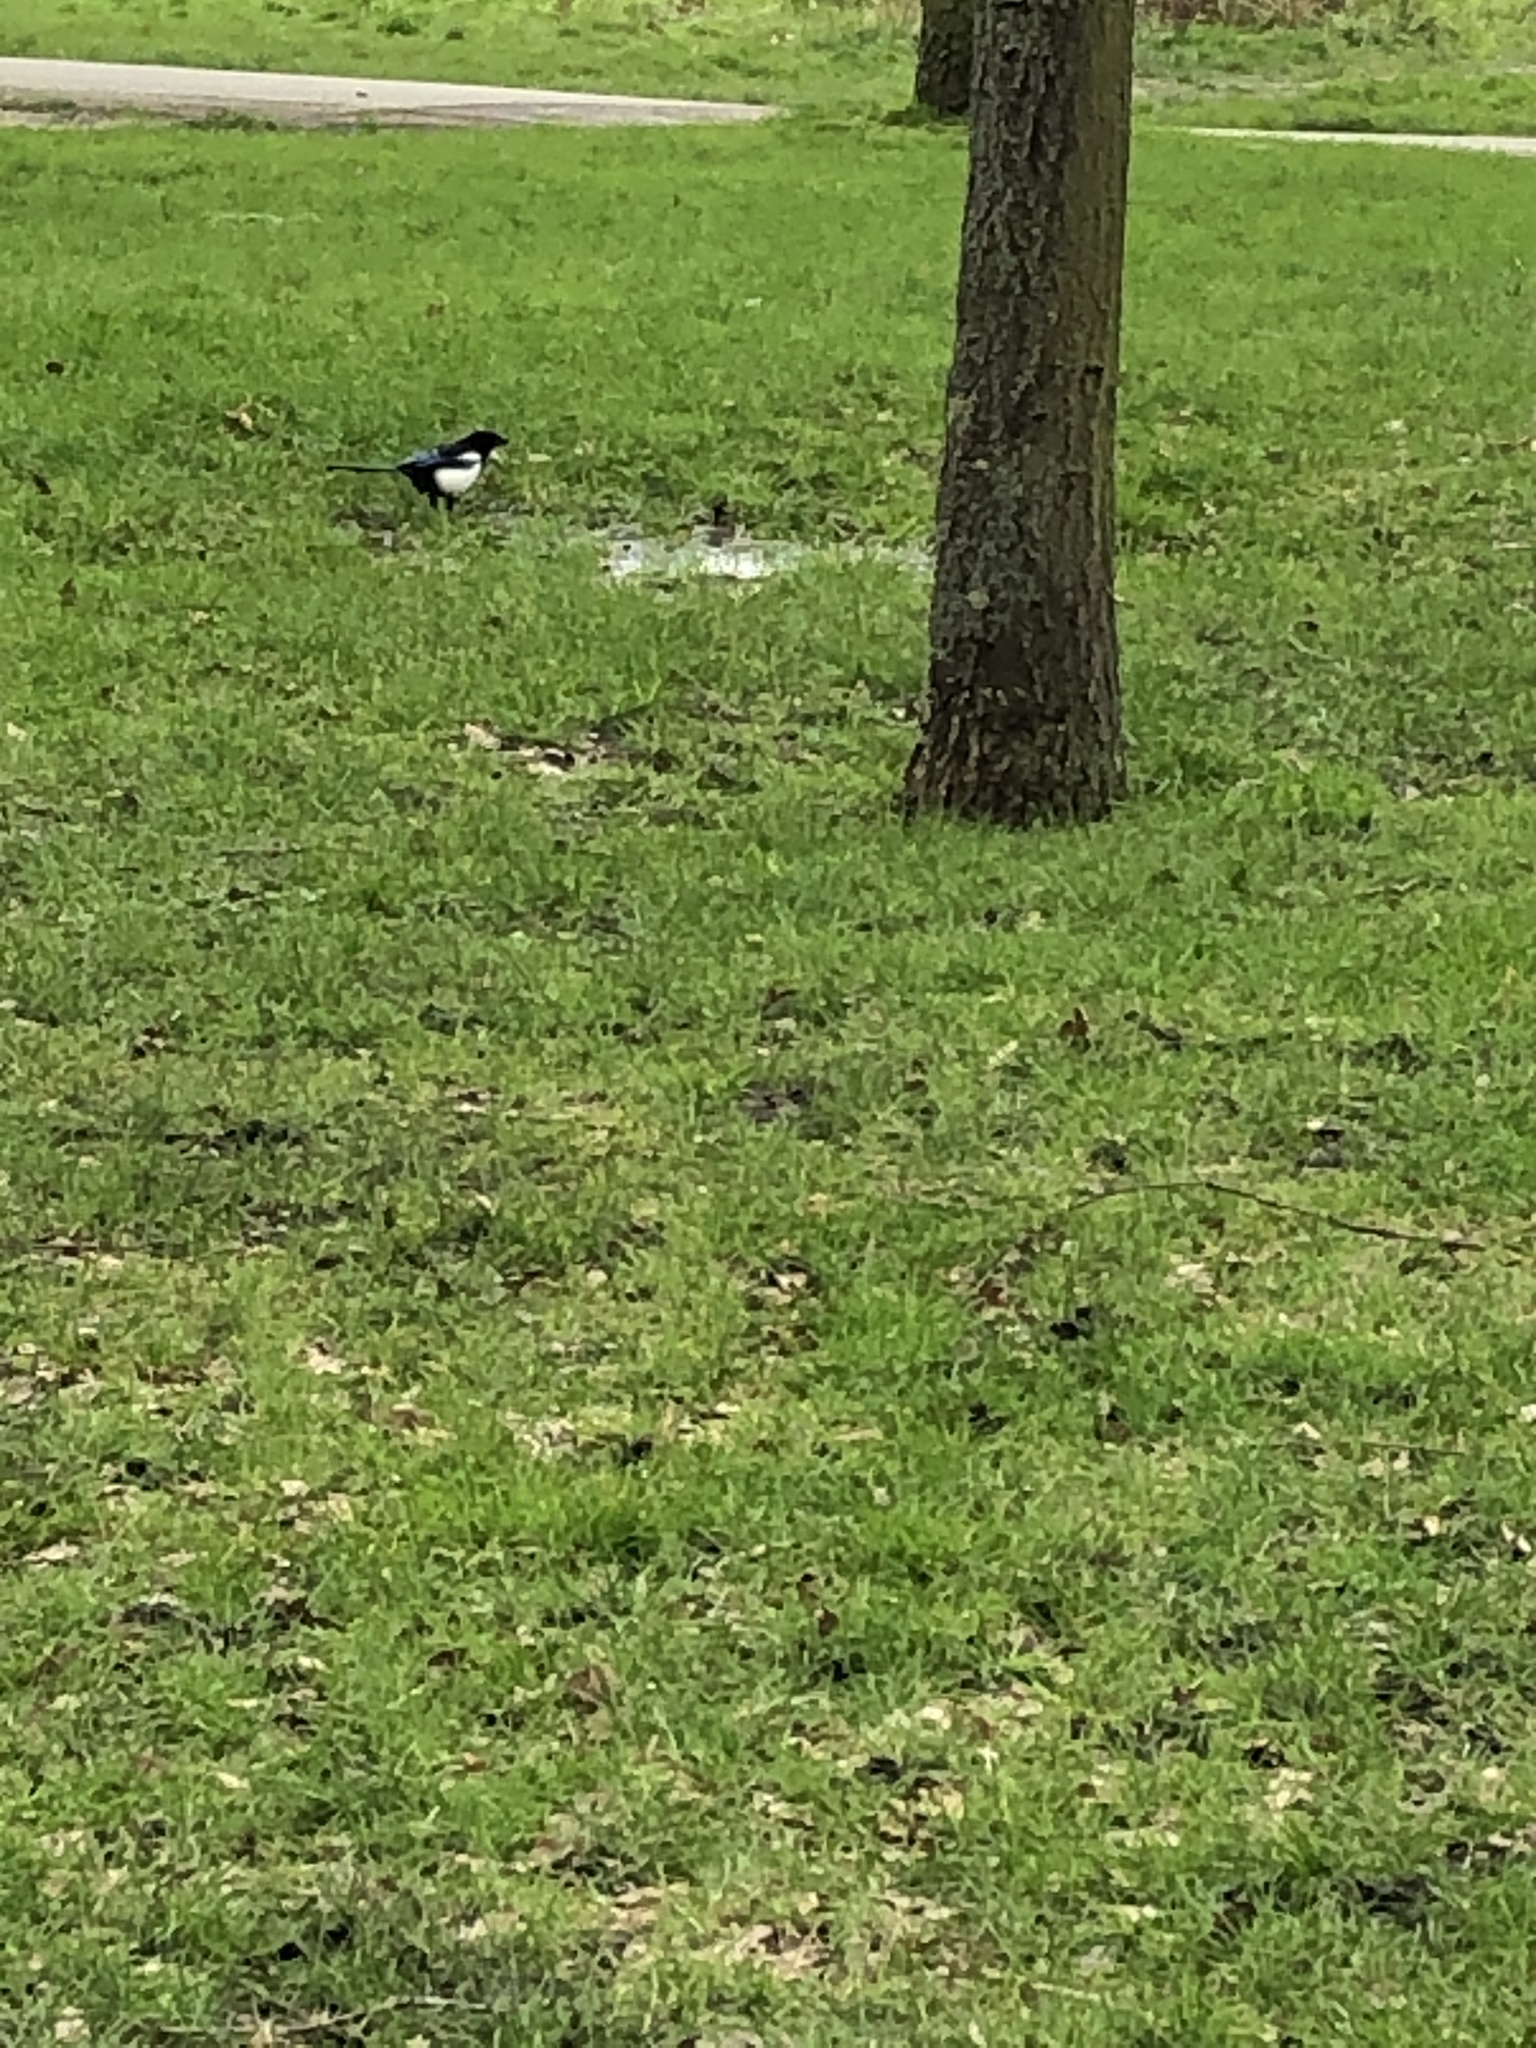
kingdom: Animalia
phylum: Chordata
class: Aves
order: Passeriformes
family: Corvidae
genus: Pica
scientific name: Pica pica
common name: Eurasian magpie
